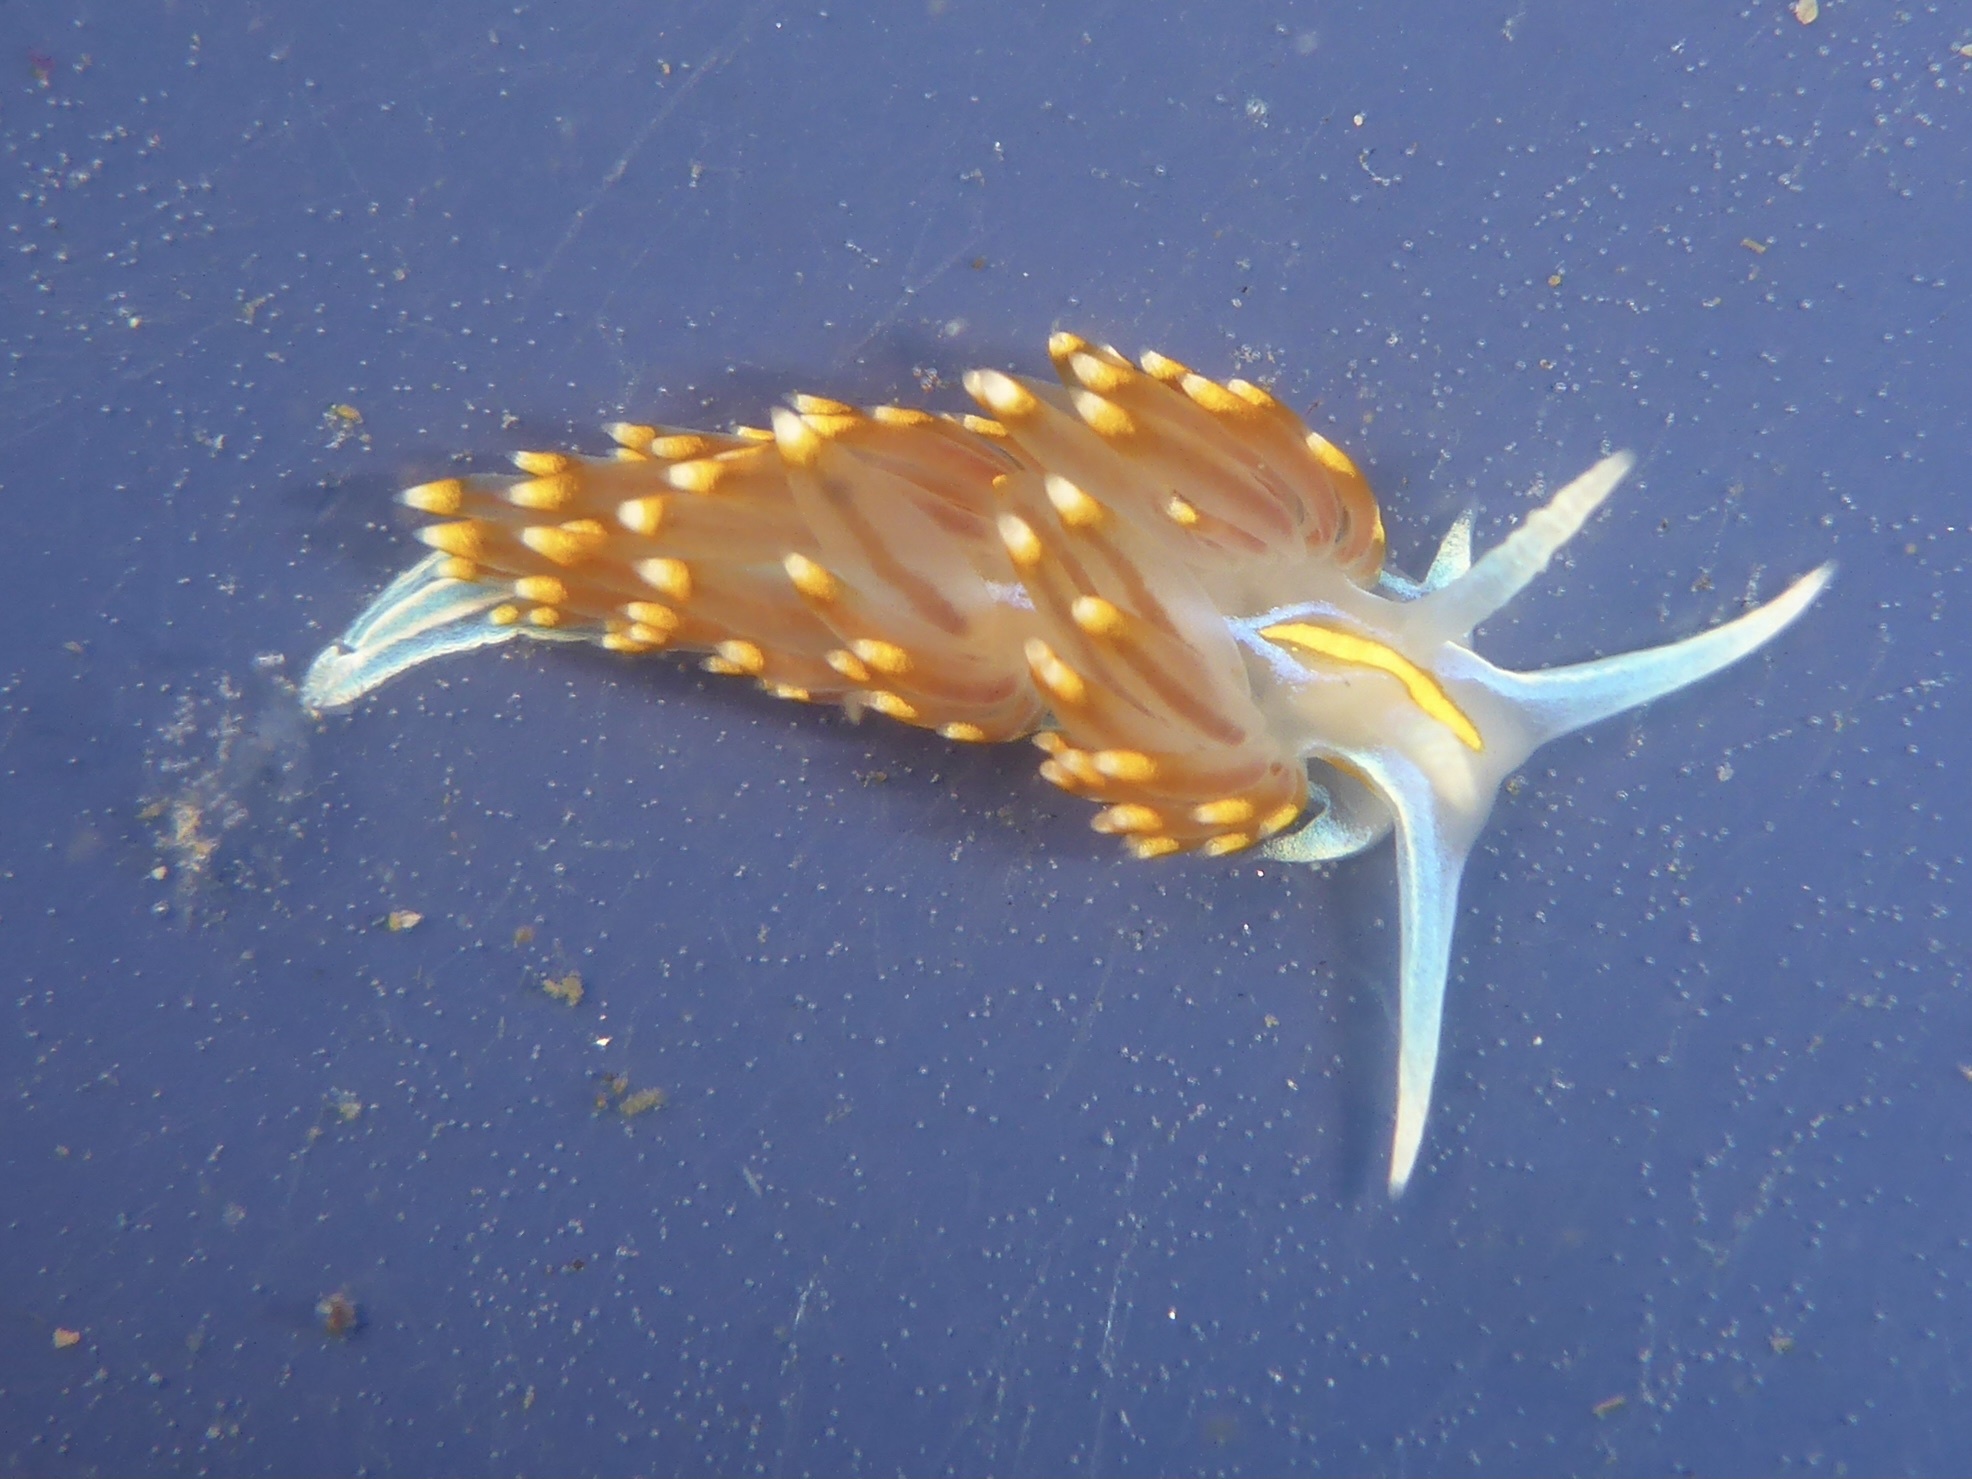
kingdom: Animalia
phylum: Mollusca
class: Gastropoda
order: Nudibranchia
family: Myrrhinidae
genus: Hermissenda
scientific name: Hermissenda opalescens
